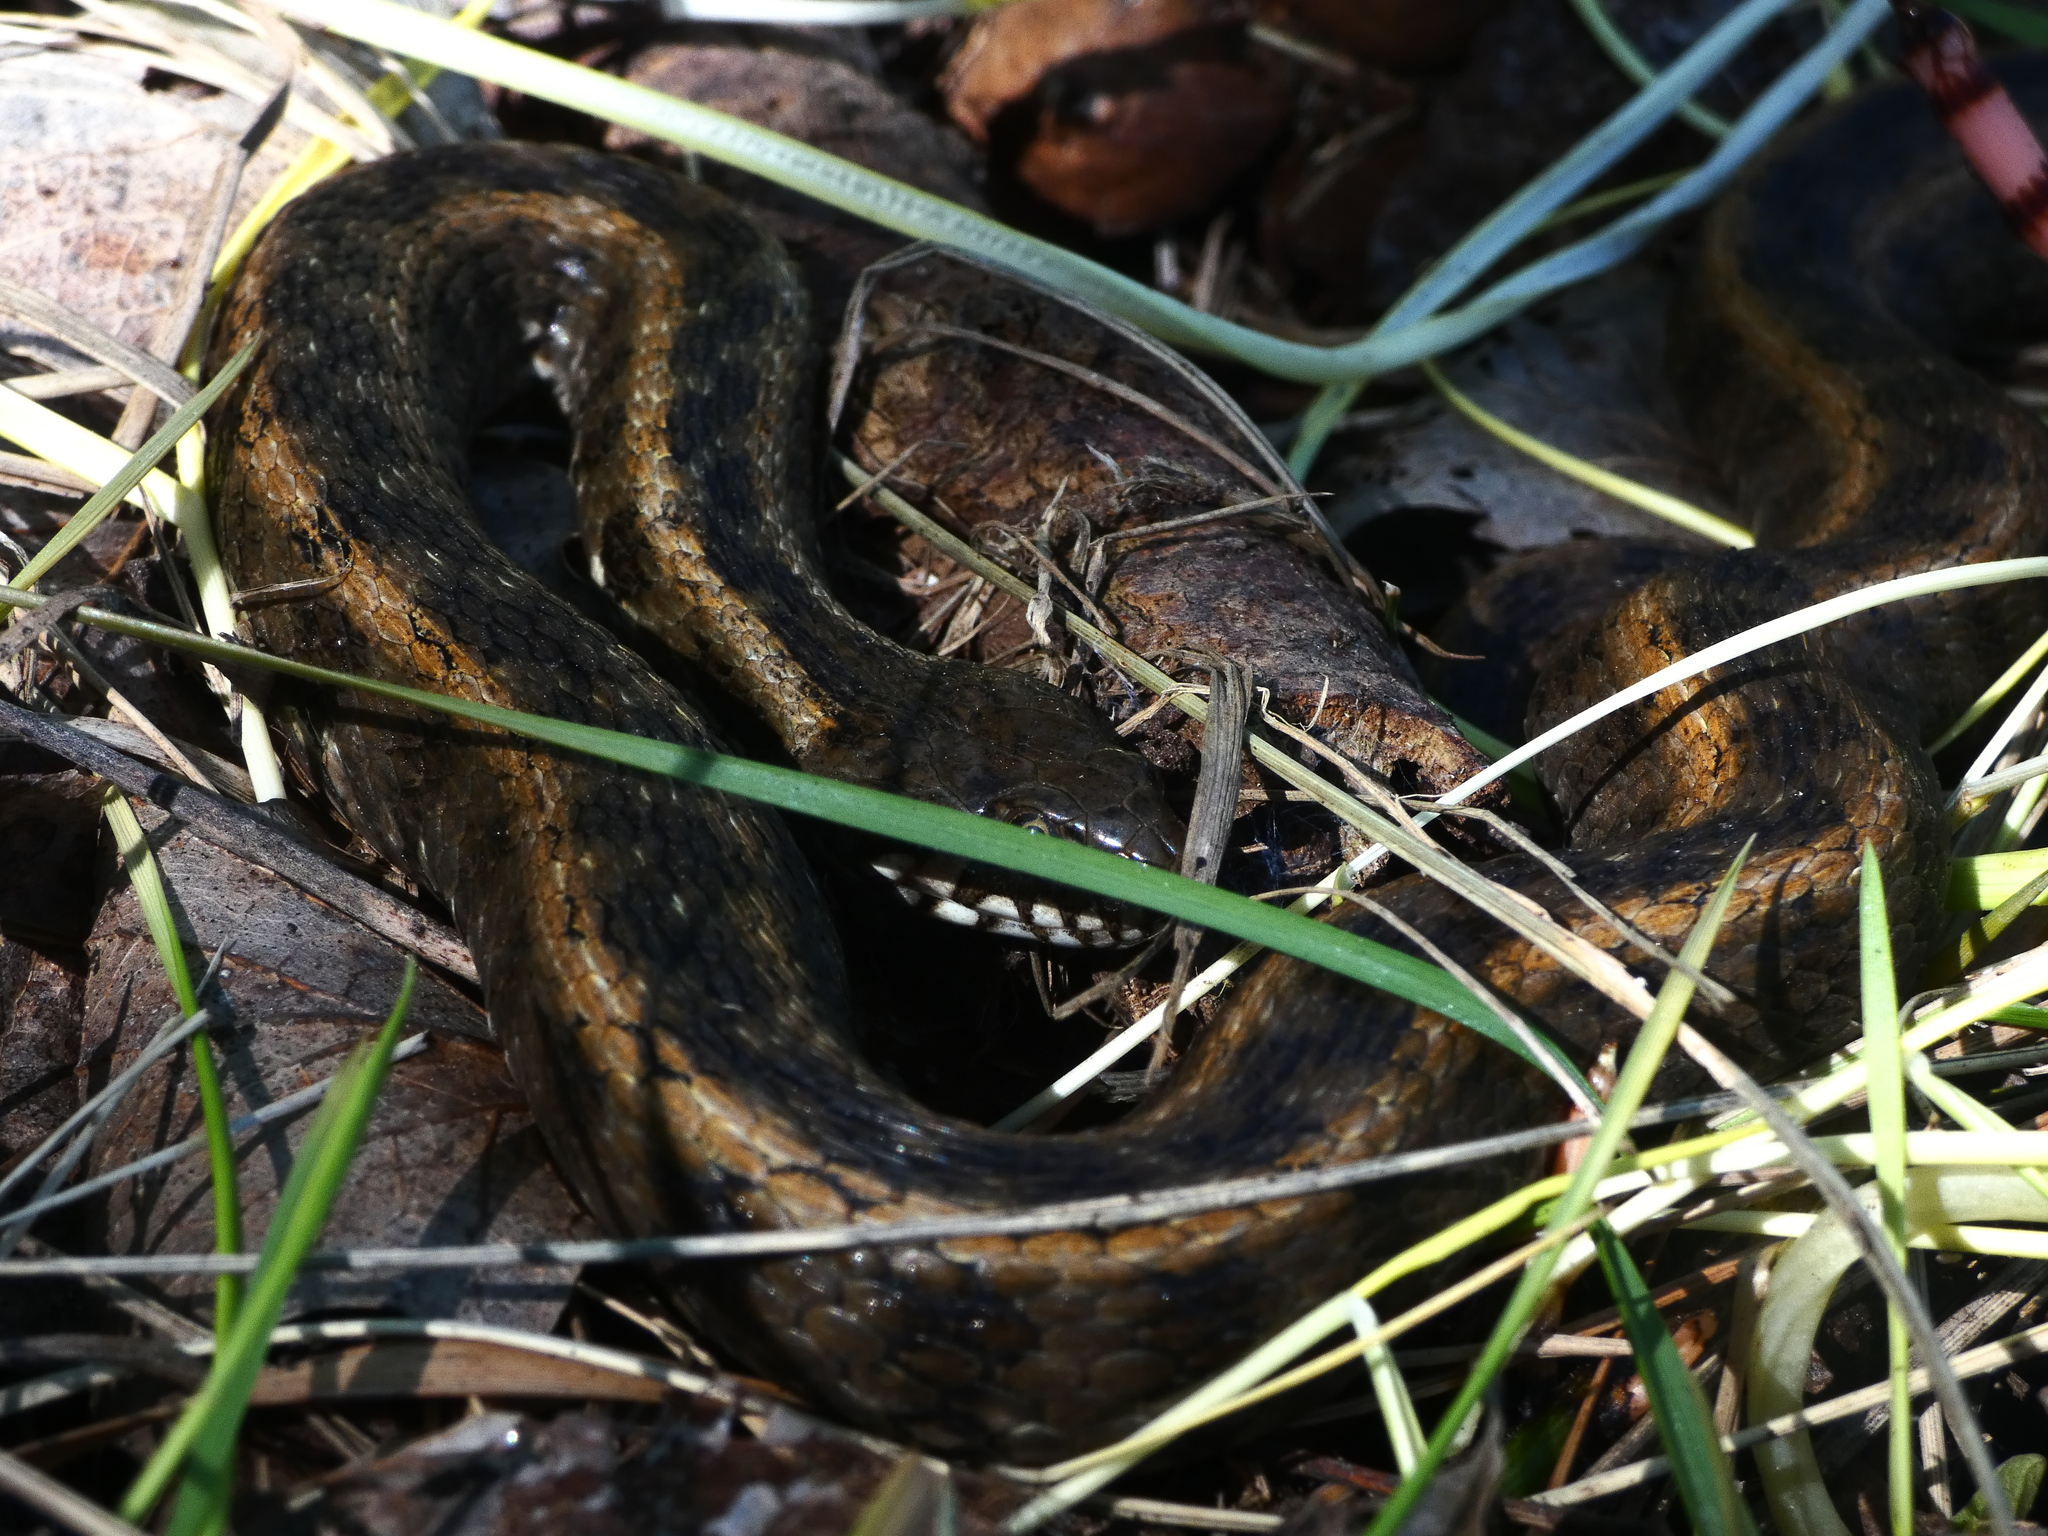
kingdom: Animalia
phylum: Chordata
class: Squamata
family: Colubridae
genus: Natrix
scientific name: Natrix maura
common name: Viperine water snake
